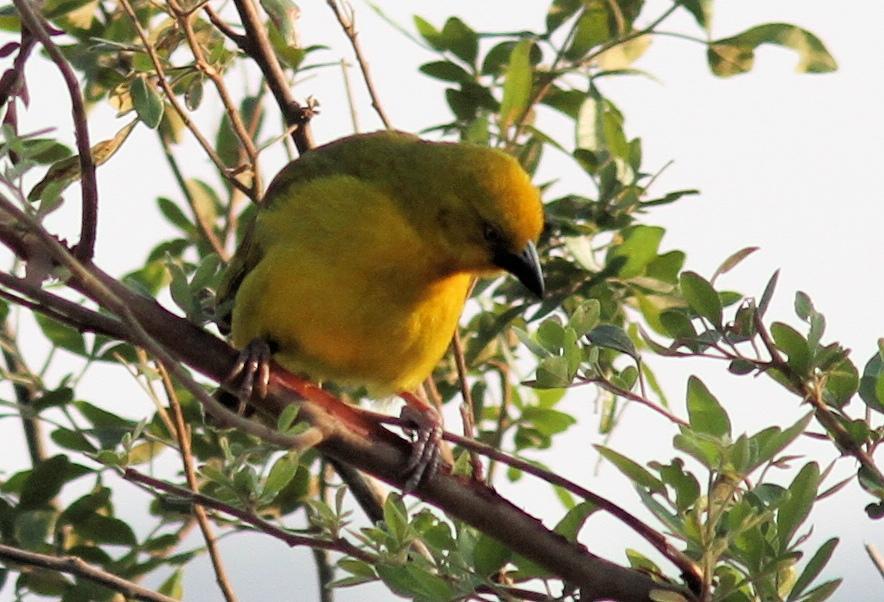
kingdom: Animalia
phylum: Chordata
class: Aves
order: Passeriformes
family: Ploceidae
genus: Ploceus
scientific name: Ploceus xanthops
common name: Holub's golden weaver
